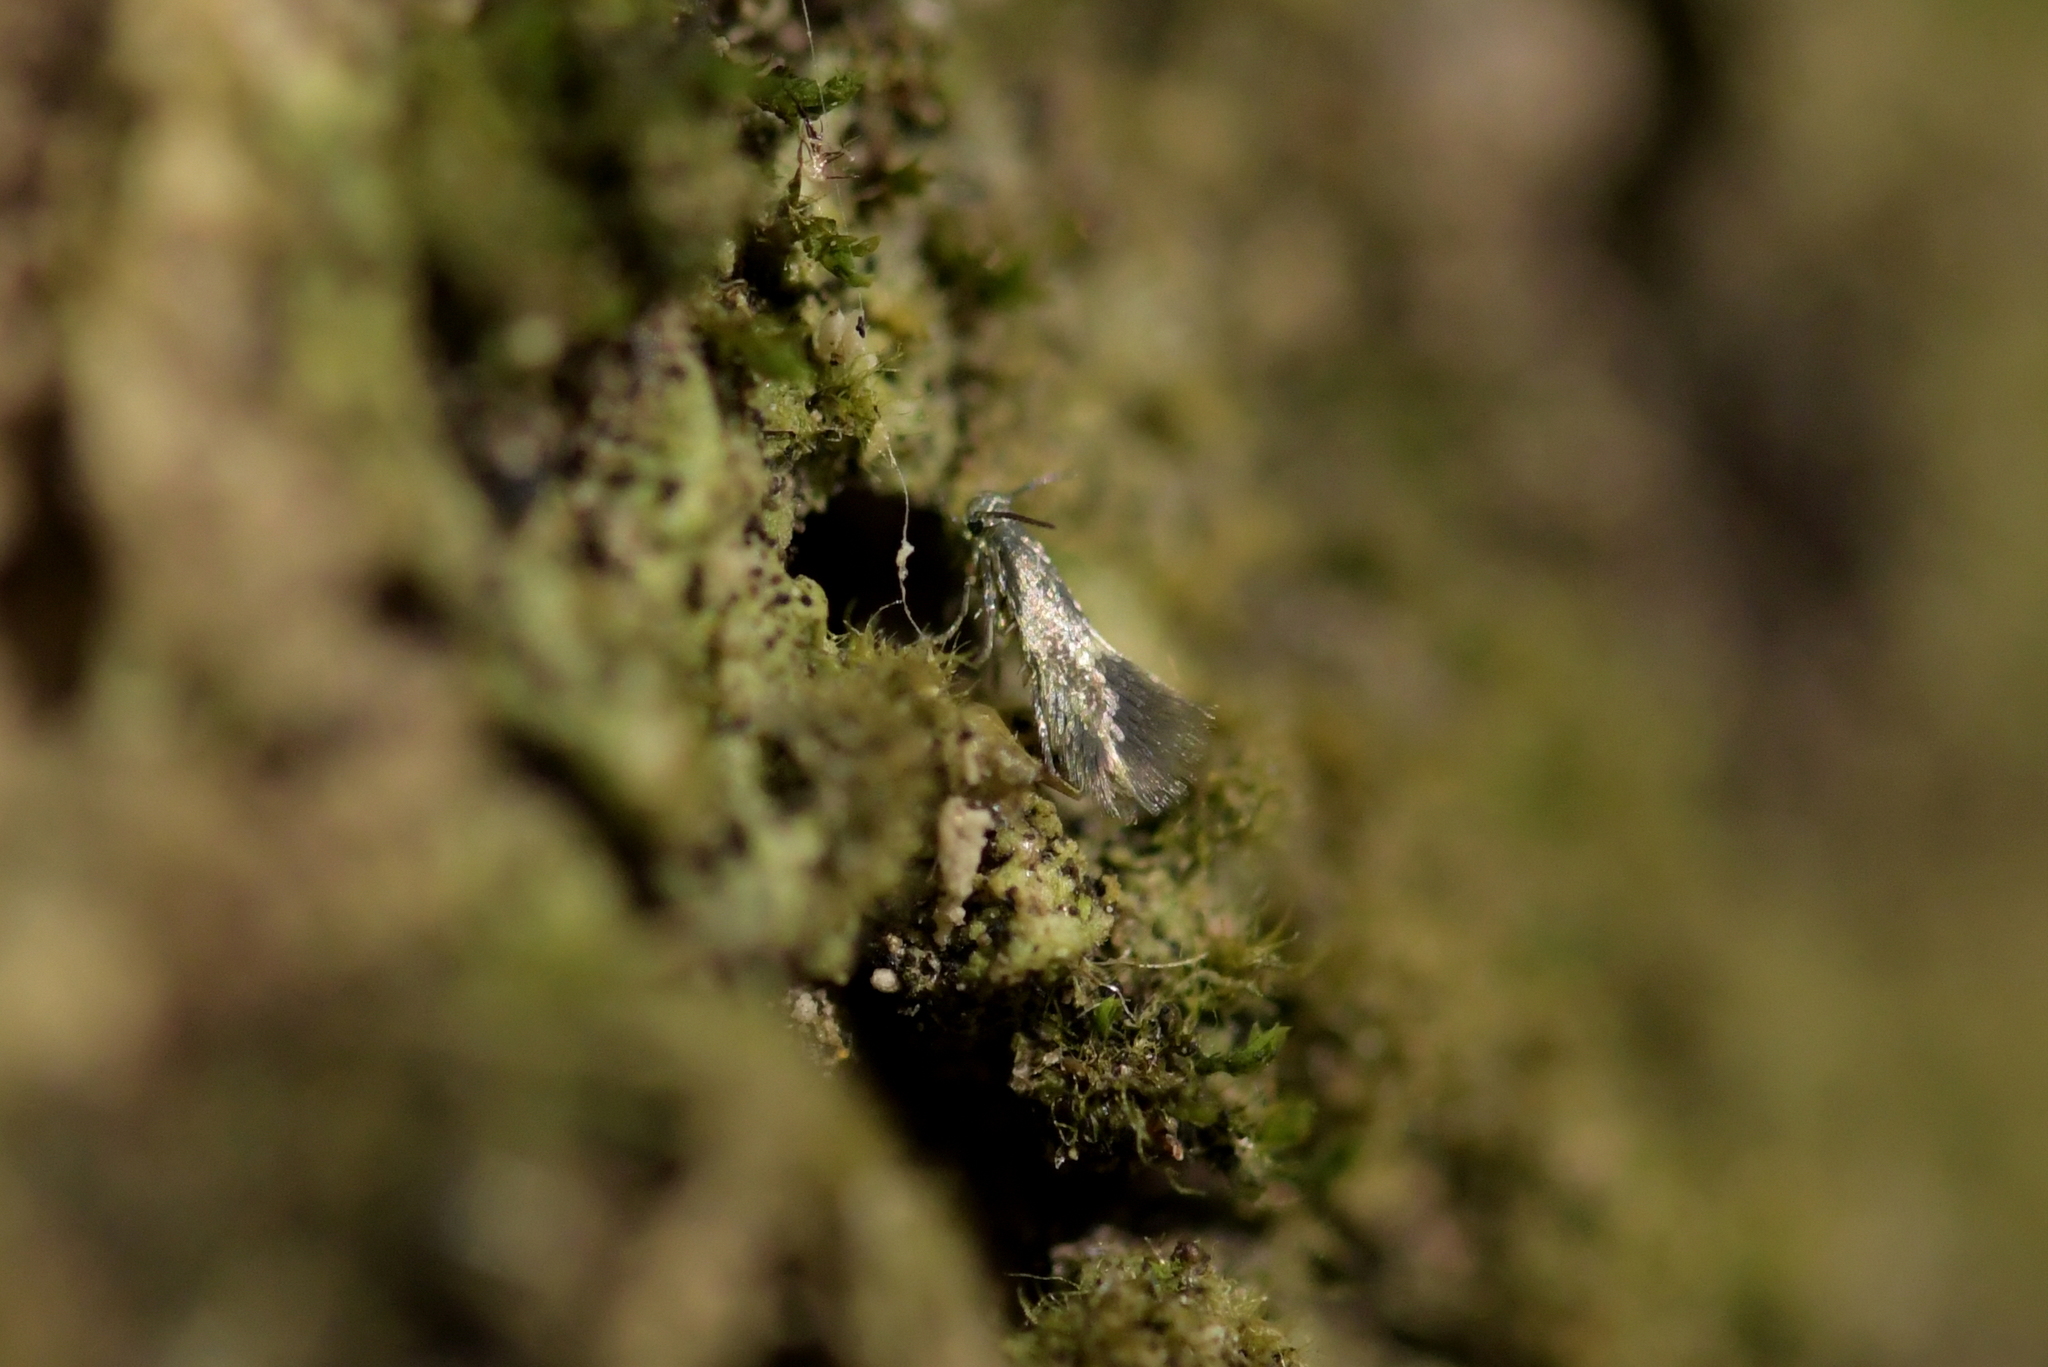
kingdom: Animalia
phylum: Arthropoda
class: Insecta
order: Lepidoptera
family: Heliozelidae
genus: Heliozela
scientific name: Heliozela catoptrias
